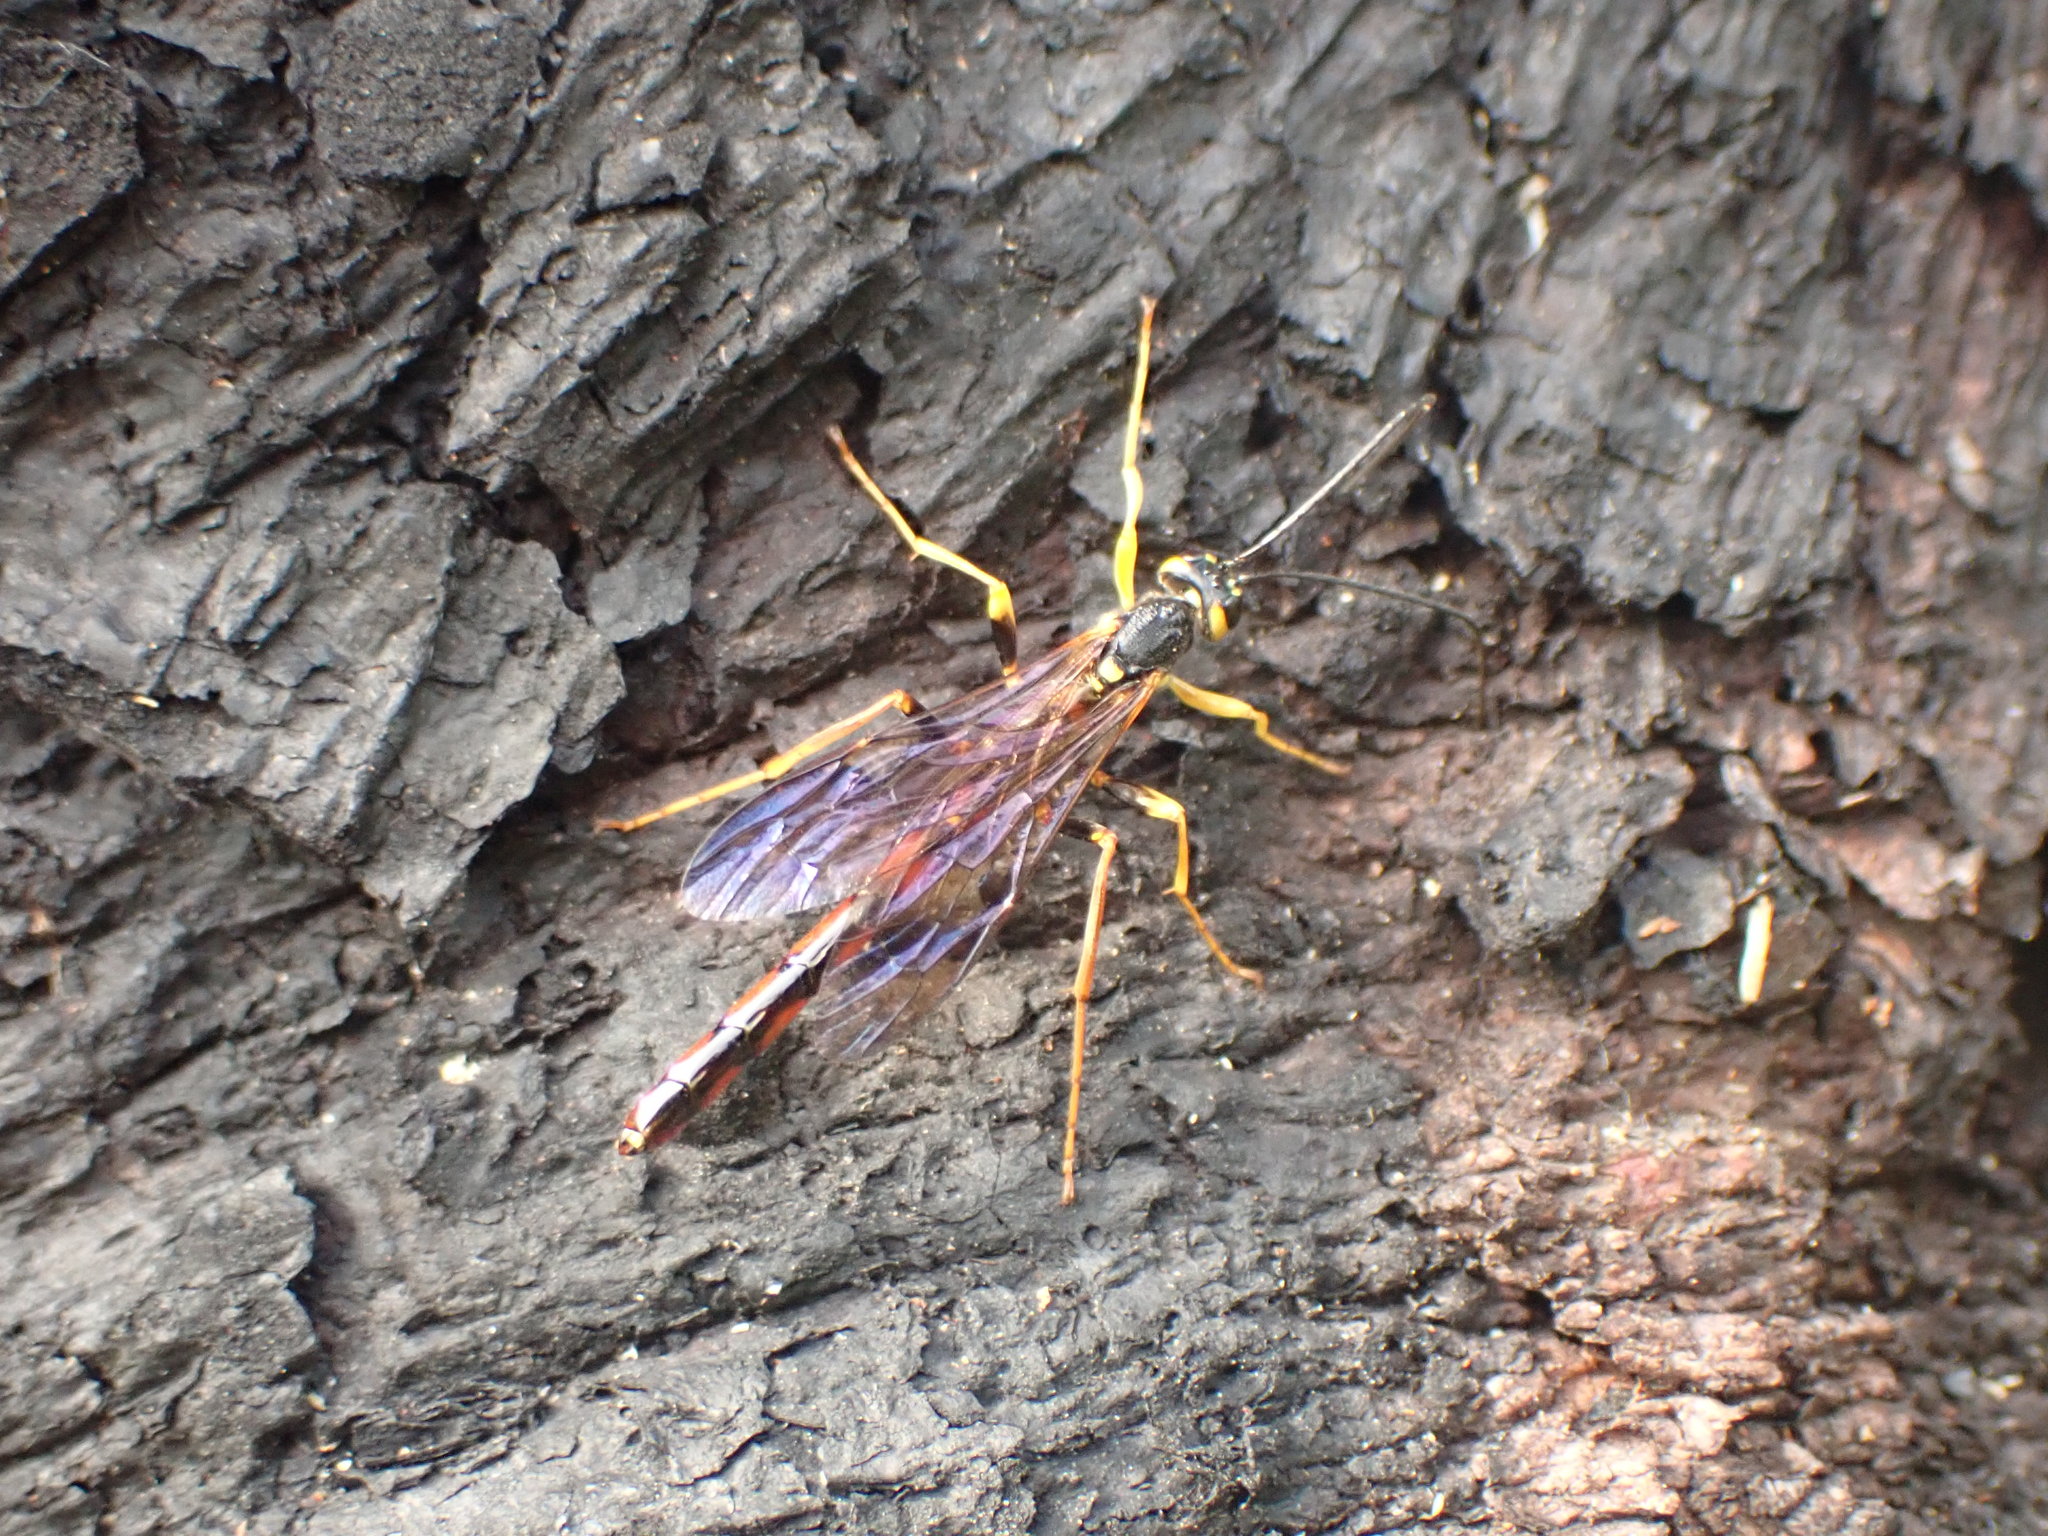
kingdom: Animalia
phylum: Arthropoda
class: Insecta
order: Hymenoptera
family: Ichneumonidae
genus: Megarhyssa
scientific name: Megarhyssa nortoni
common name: Norton's giant ichneumonid wasp
